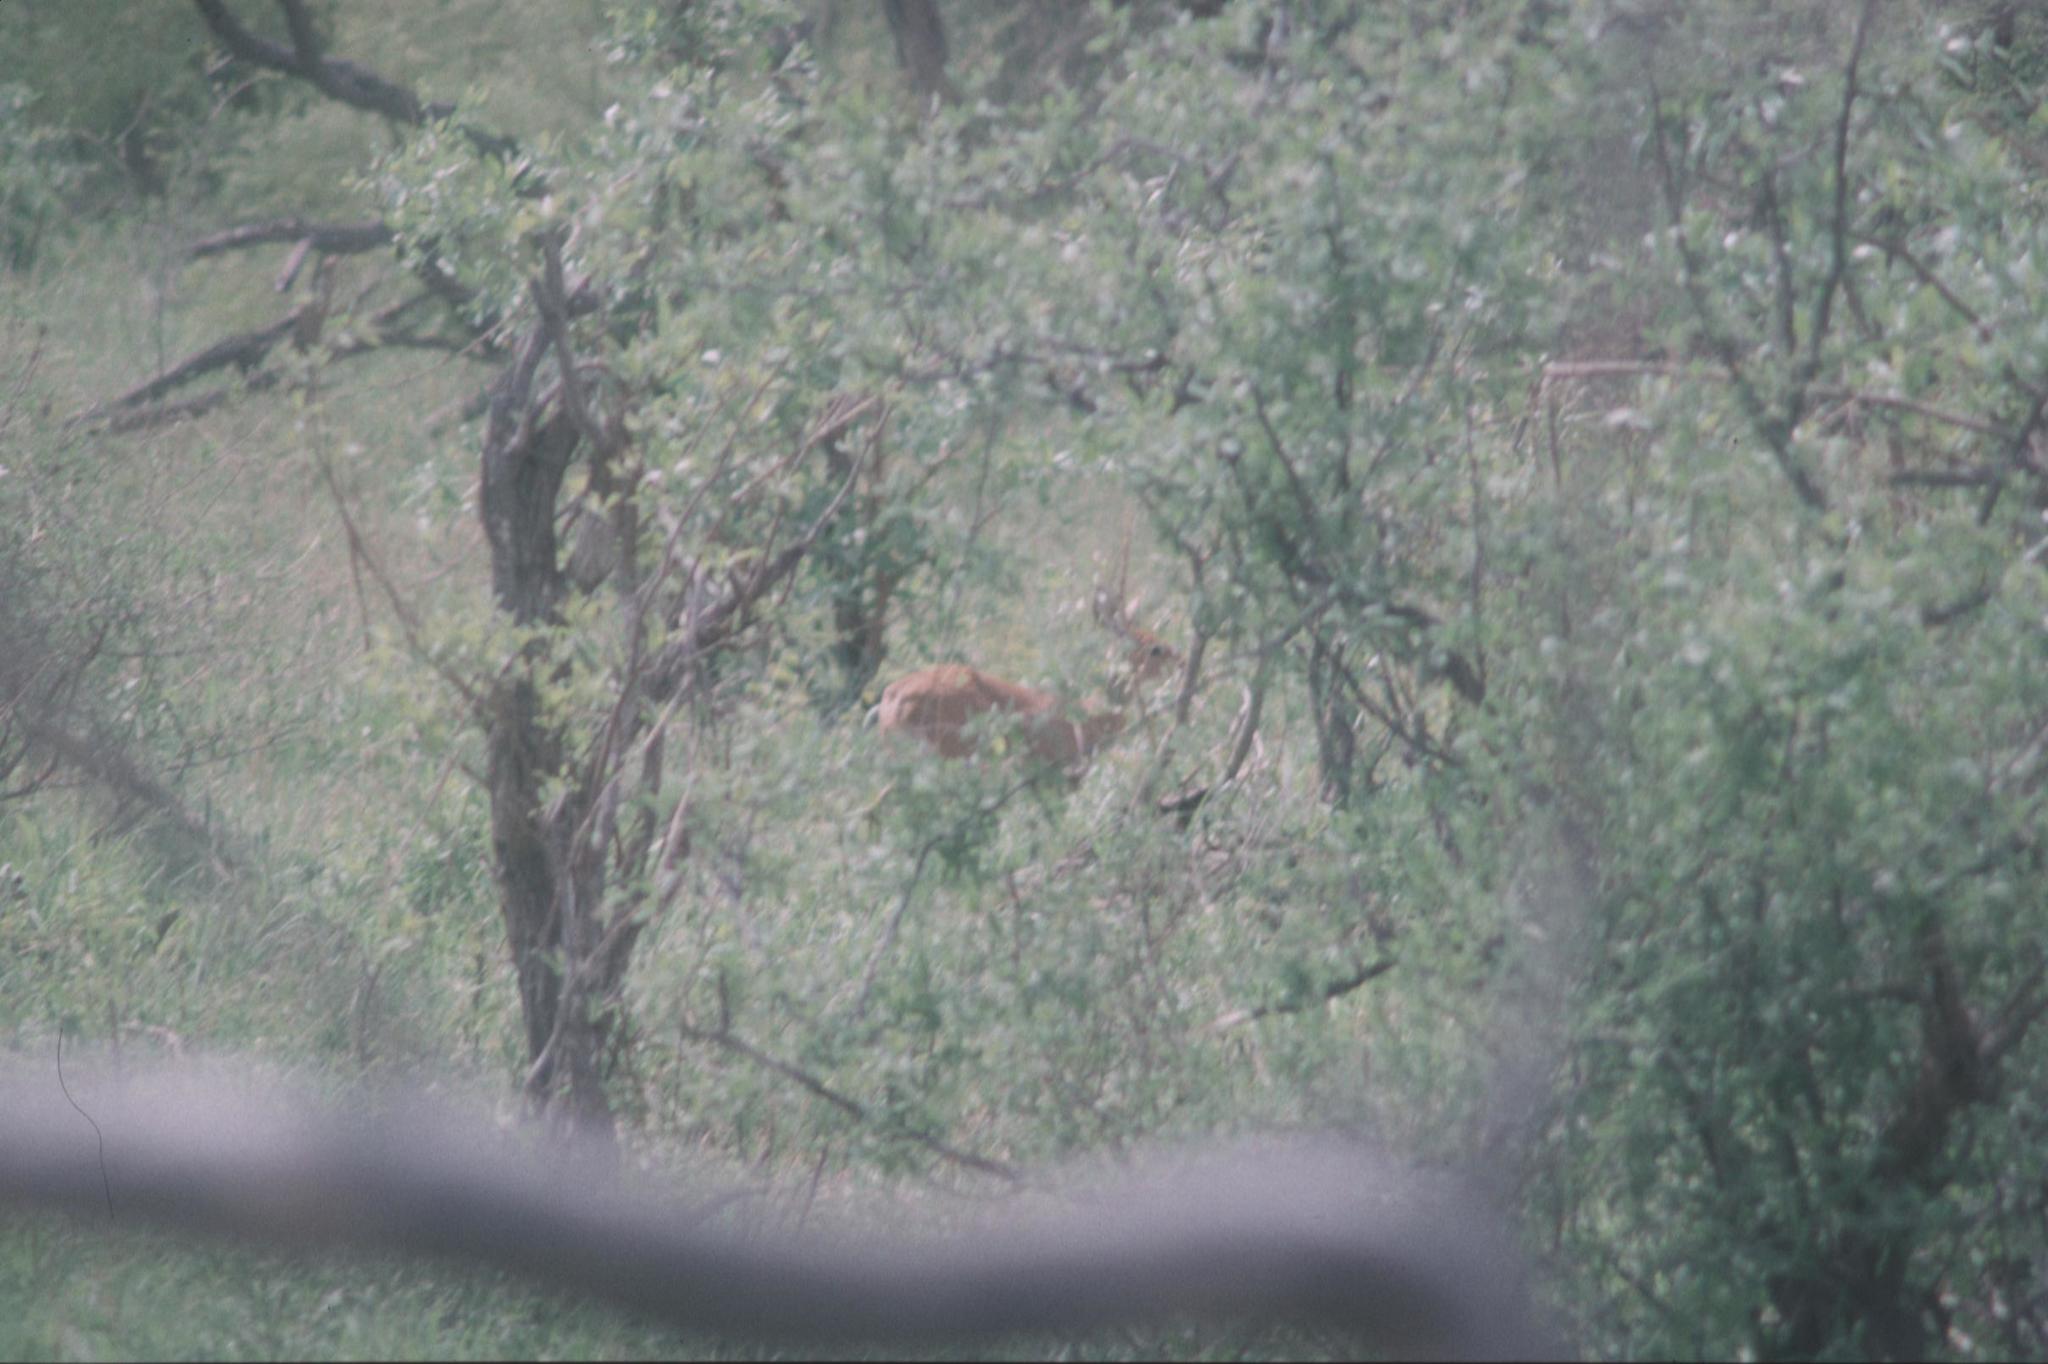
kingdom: Animalia
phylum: Chordata
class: Mammalia
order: Artiodactyla
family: Bovidae
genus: Raphicerus
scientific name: Raphicerus campestris
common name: Steenbok
